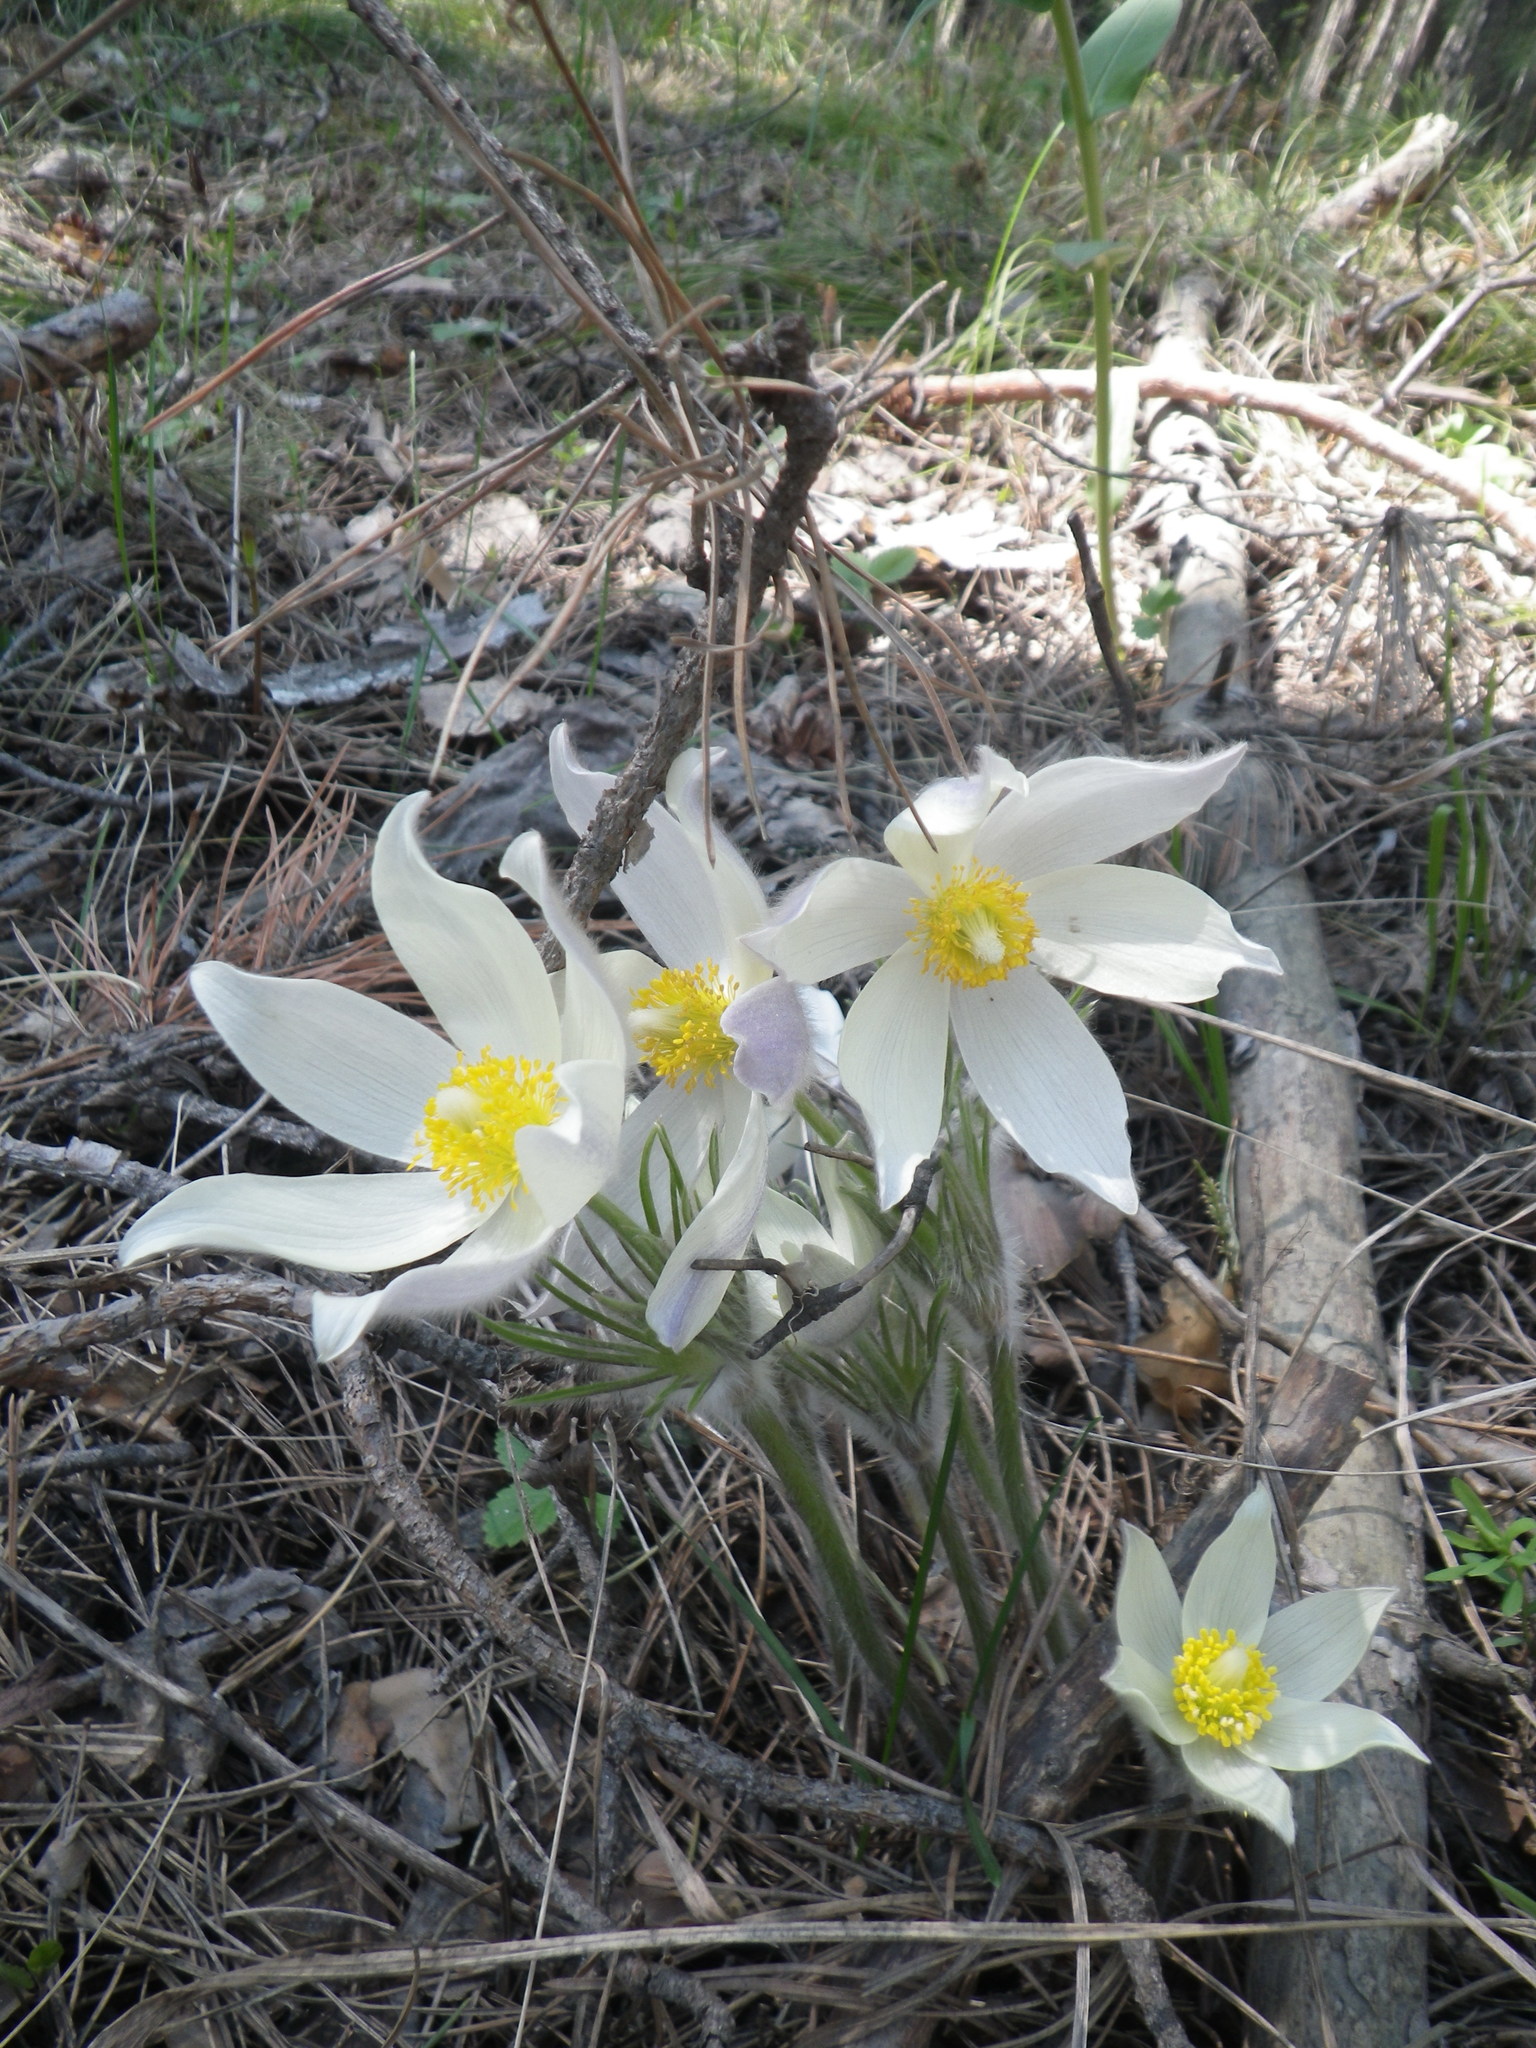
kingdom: Plantae
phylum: Tracheophyta
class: Magnoliopsida
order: Ranunculales
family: Ranunculaceae
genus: Pulsatilla
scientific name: Pulsatilla patens
